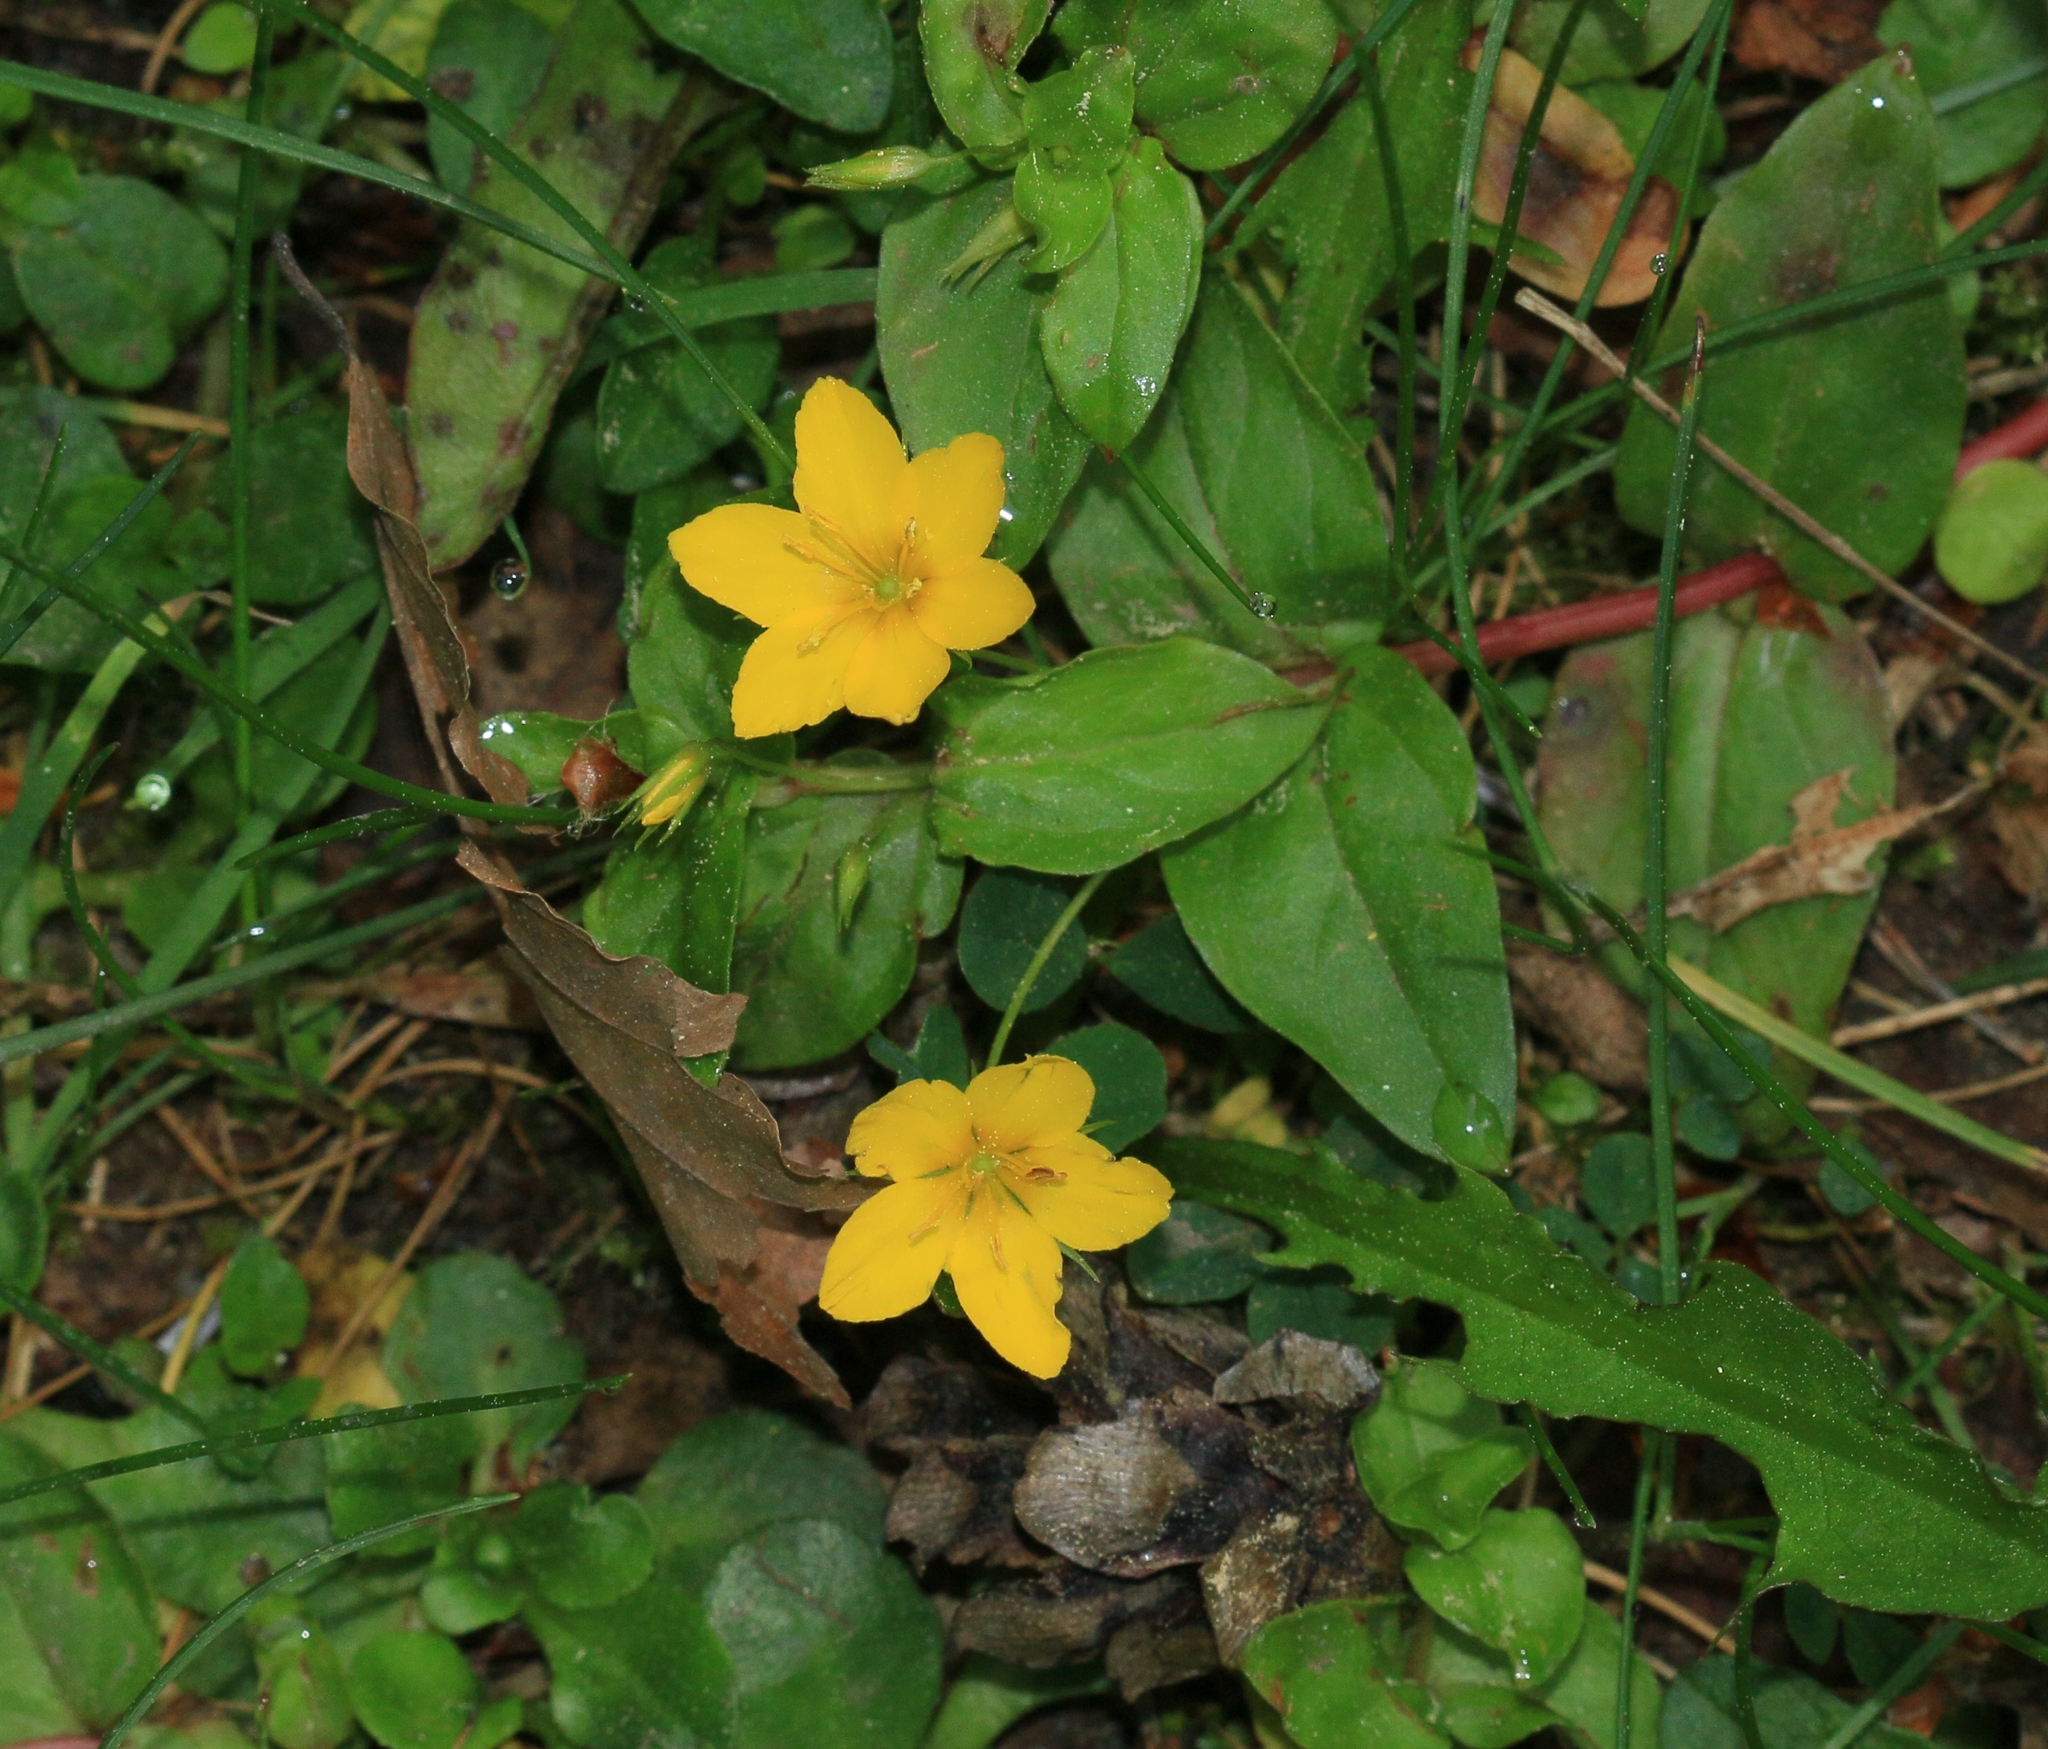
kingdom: Plantae
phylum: Tracheophyta
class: Magnoliopsida
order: Ericales
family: Primulaceae
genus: Lysimachia
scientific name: Lysimachia nemorum
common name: Yellow pimpernel
